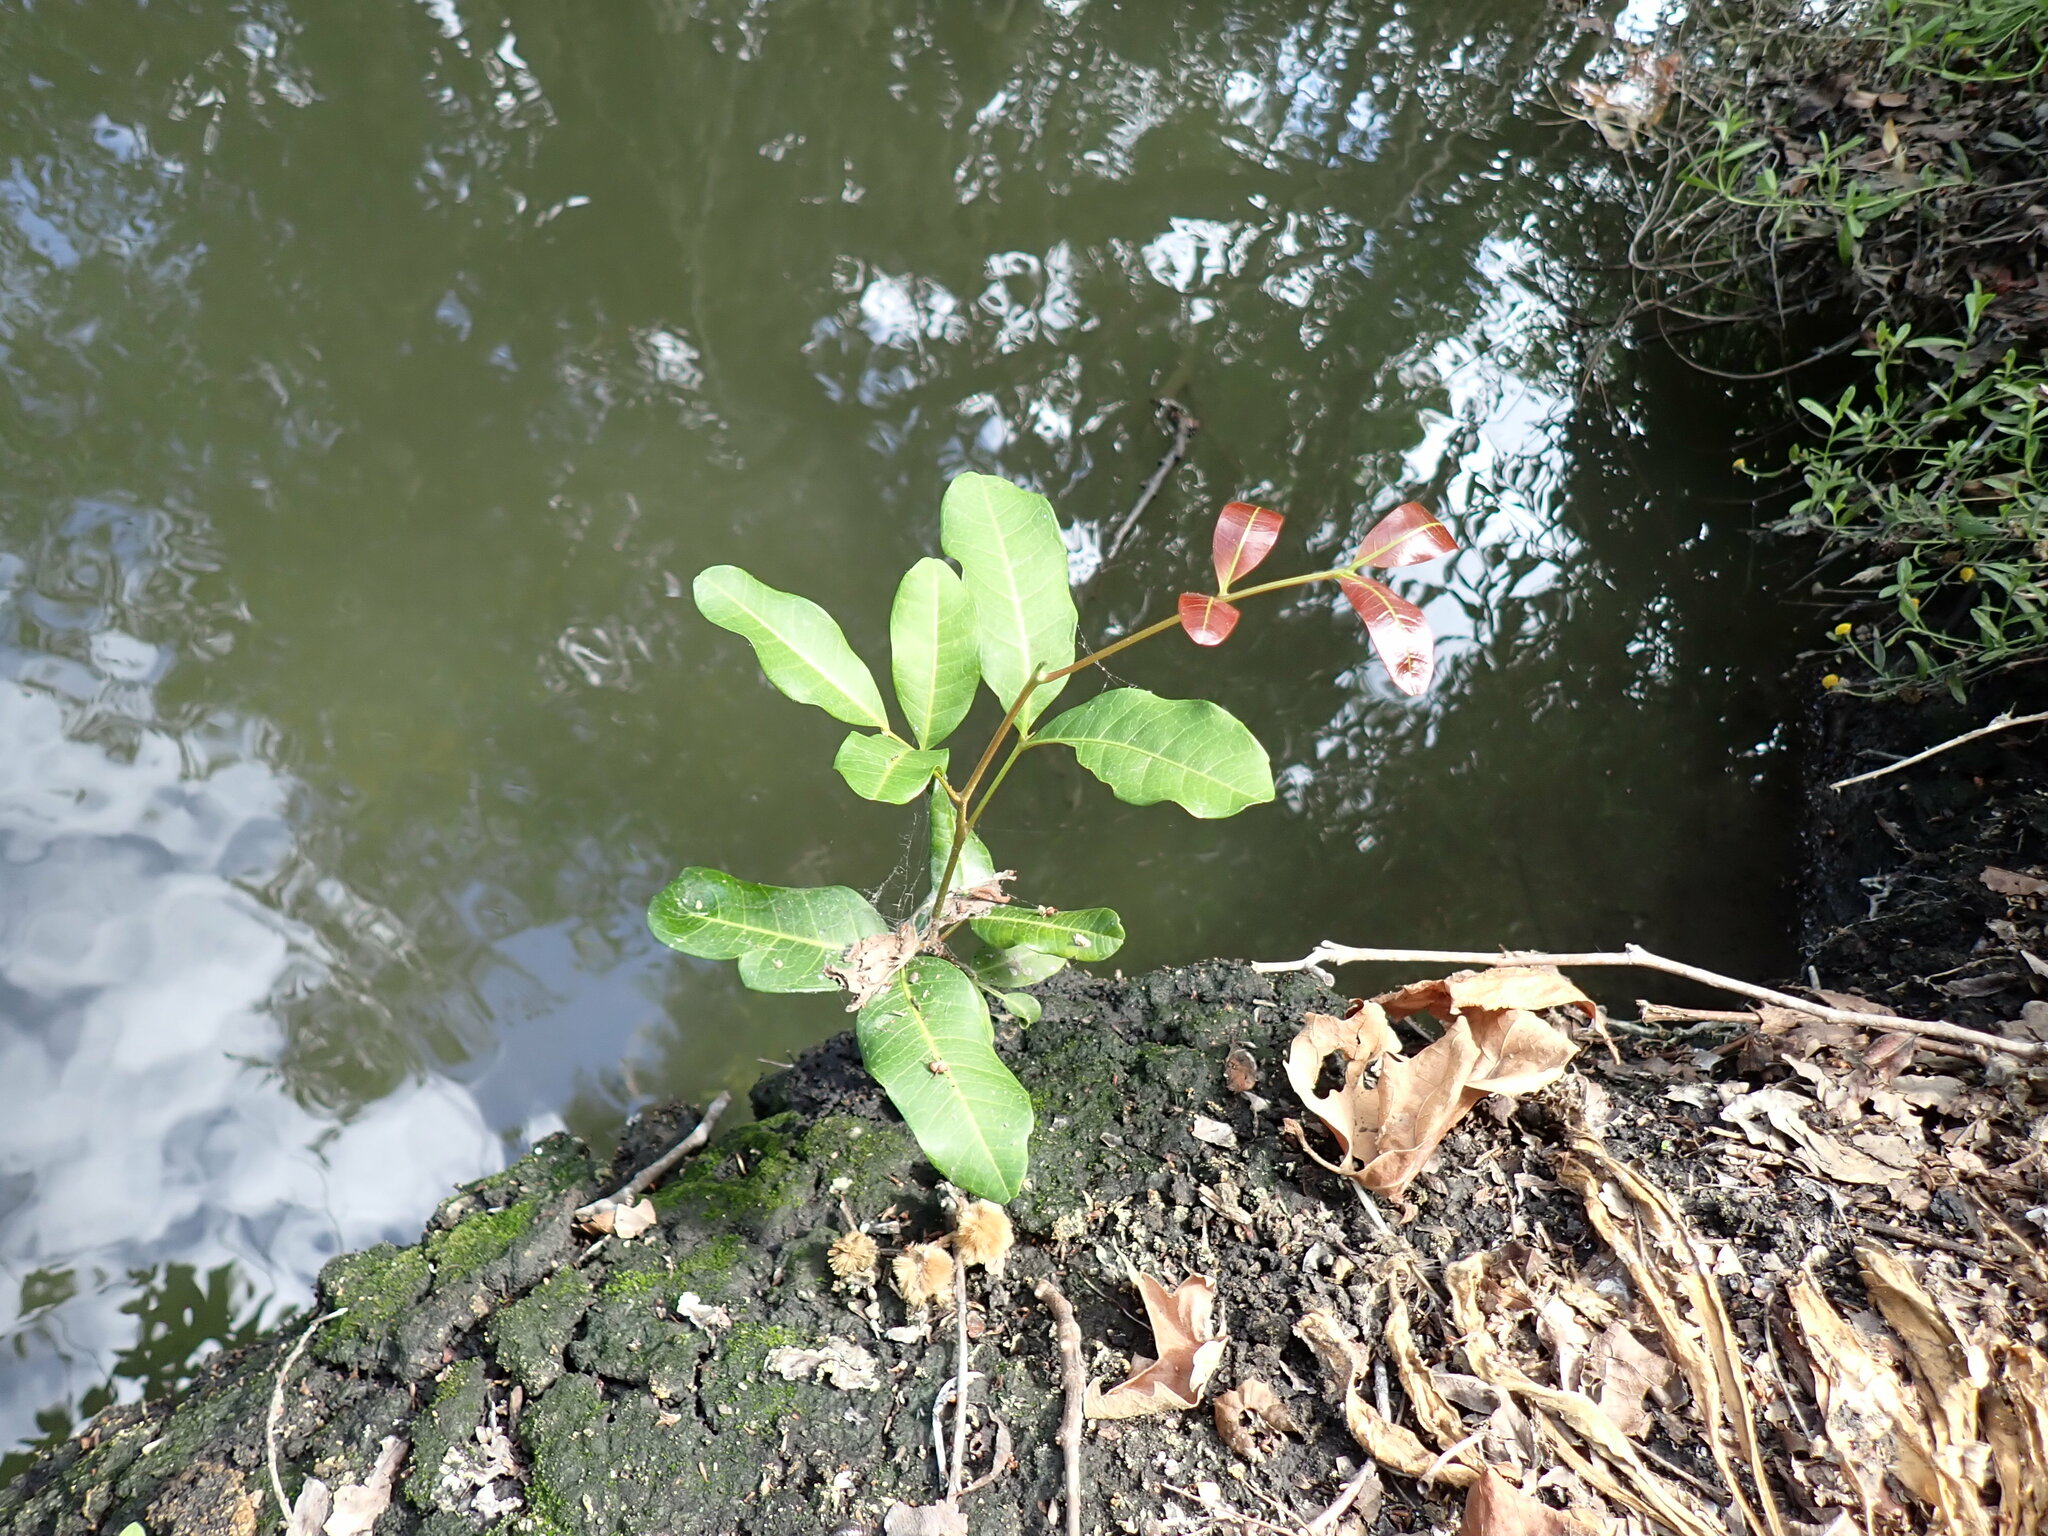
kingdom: Plantae
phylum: Tracheophyta
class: Magnoliopsida
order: Sapindales
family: Sapindaceae
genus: Cupaniopsis
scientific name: Cupaniopsis anacardioides
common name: Carrotwood
